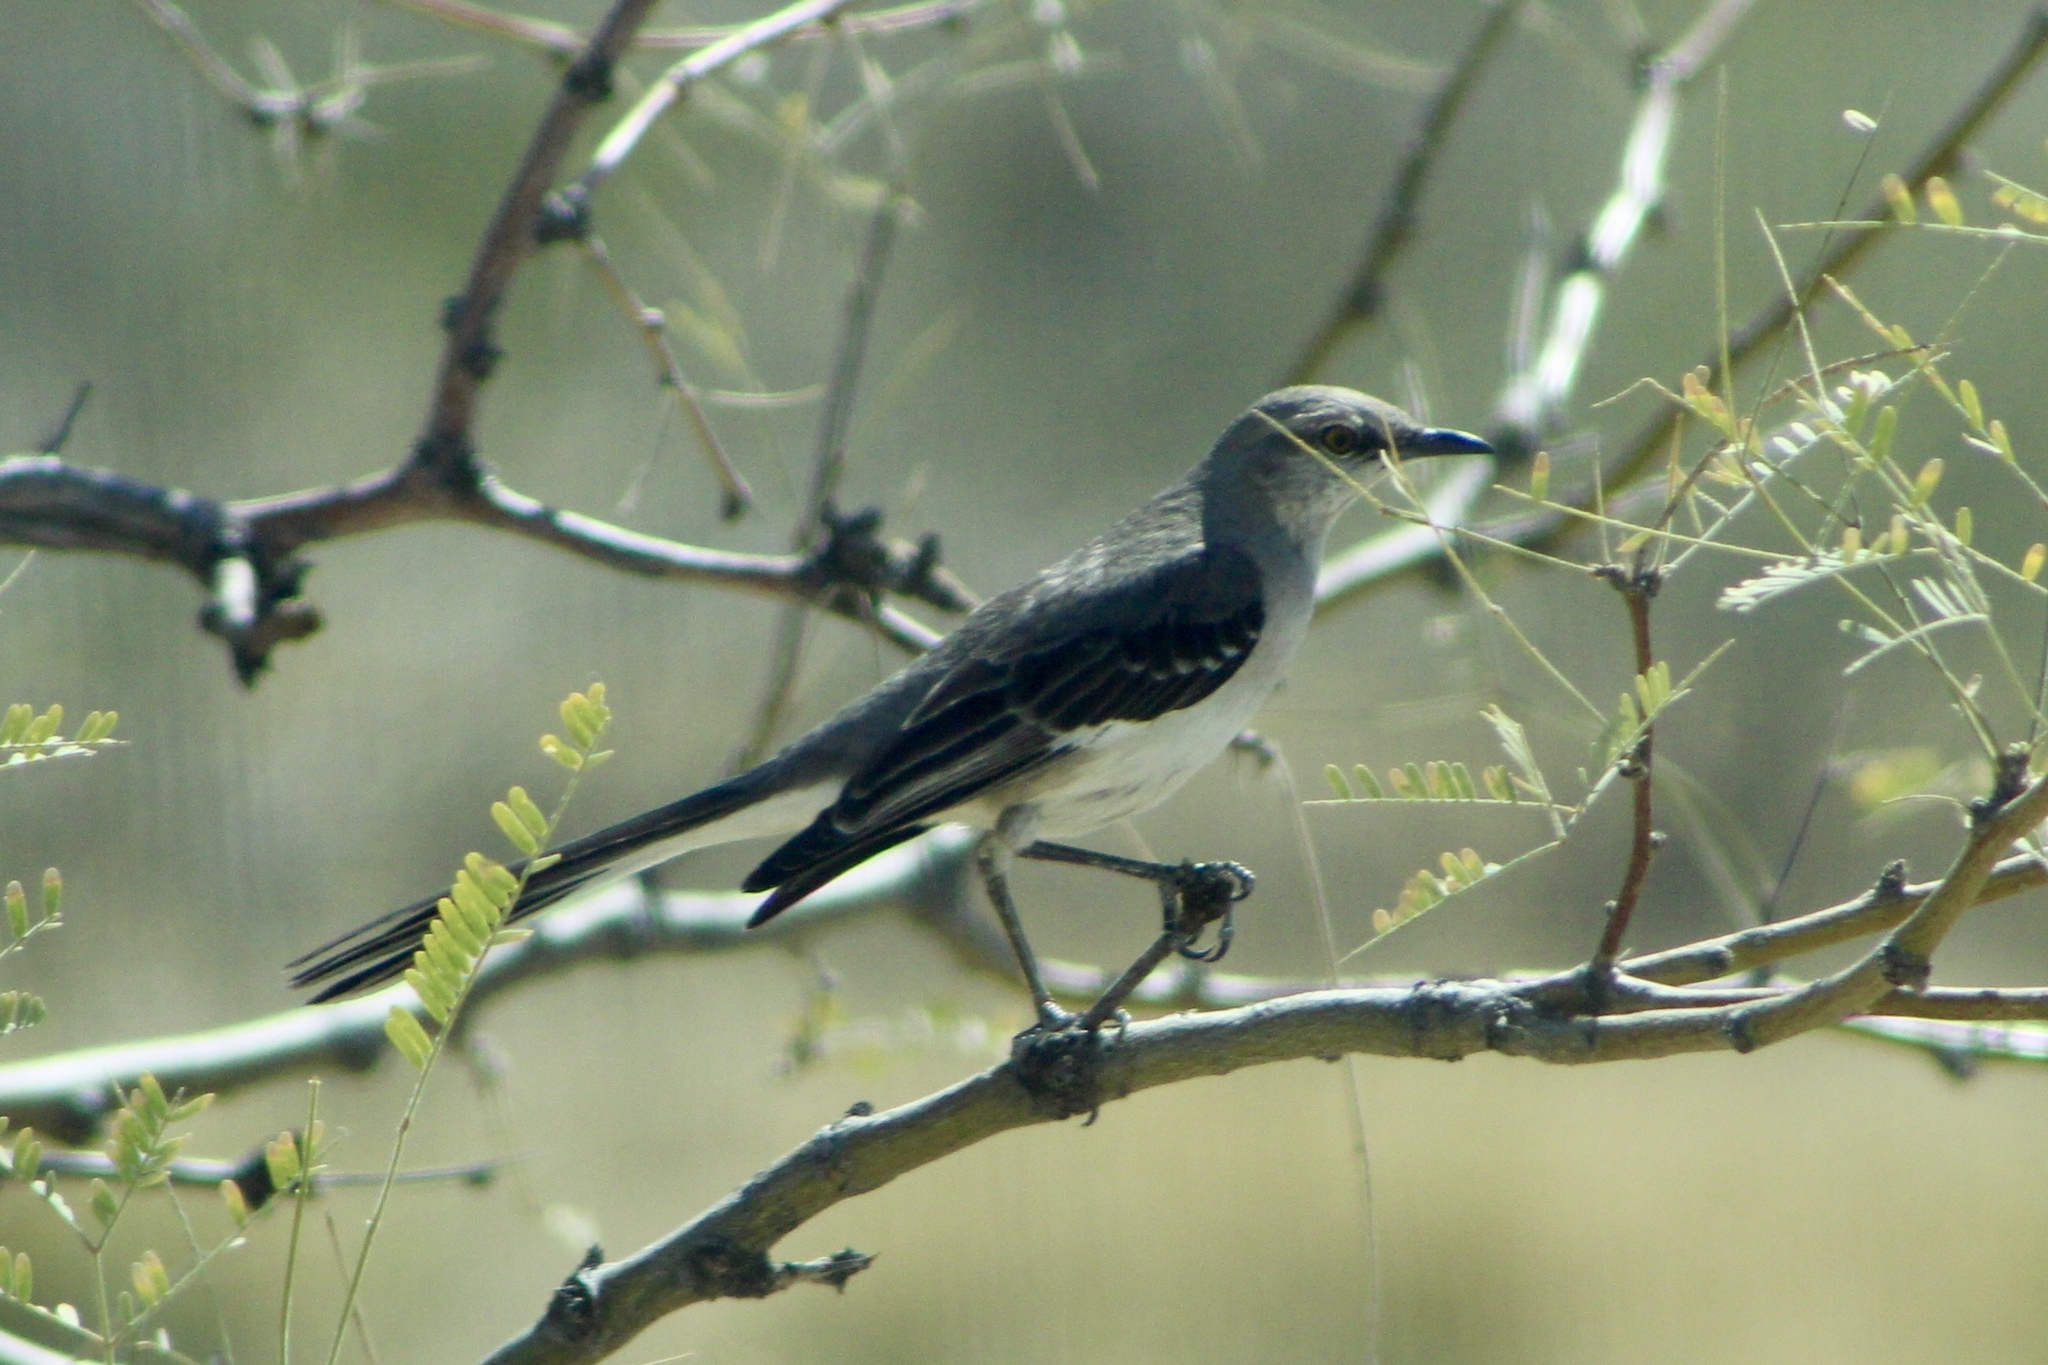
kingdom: Animalia
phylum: Chordata
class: Aves
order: Passeriformes
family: Mimidae
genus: Mimus
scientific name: Mimus polyglottos
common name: Northern mockingbird
